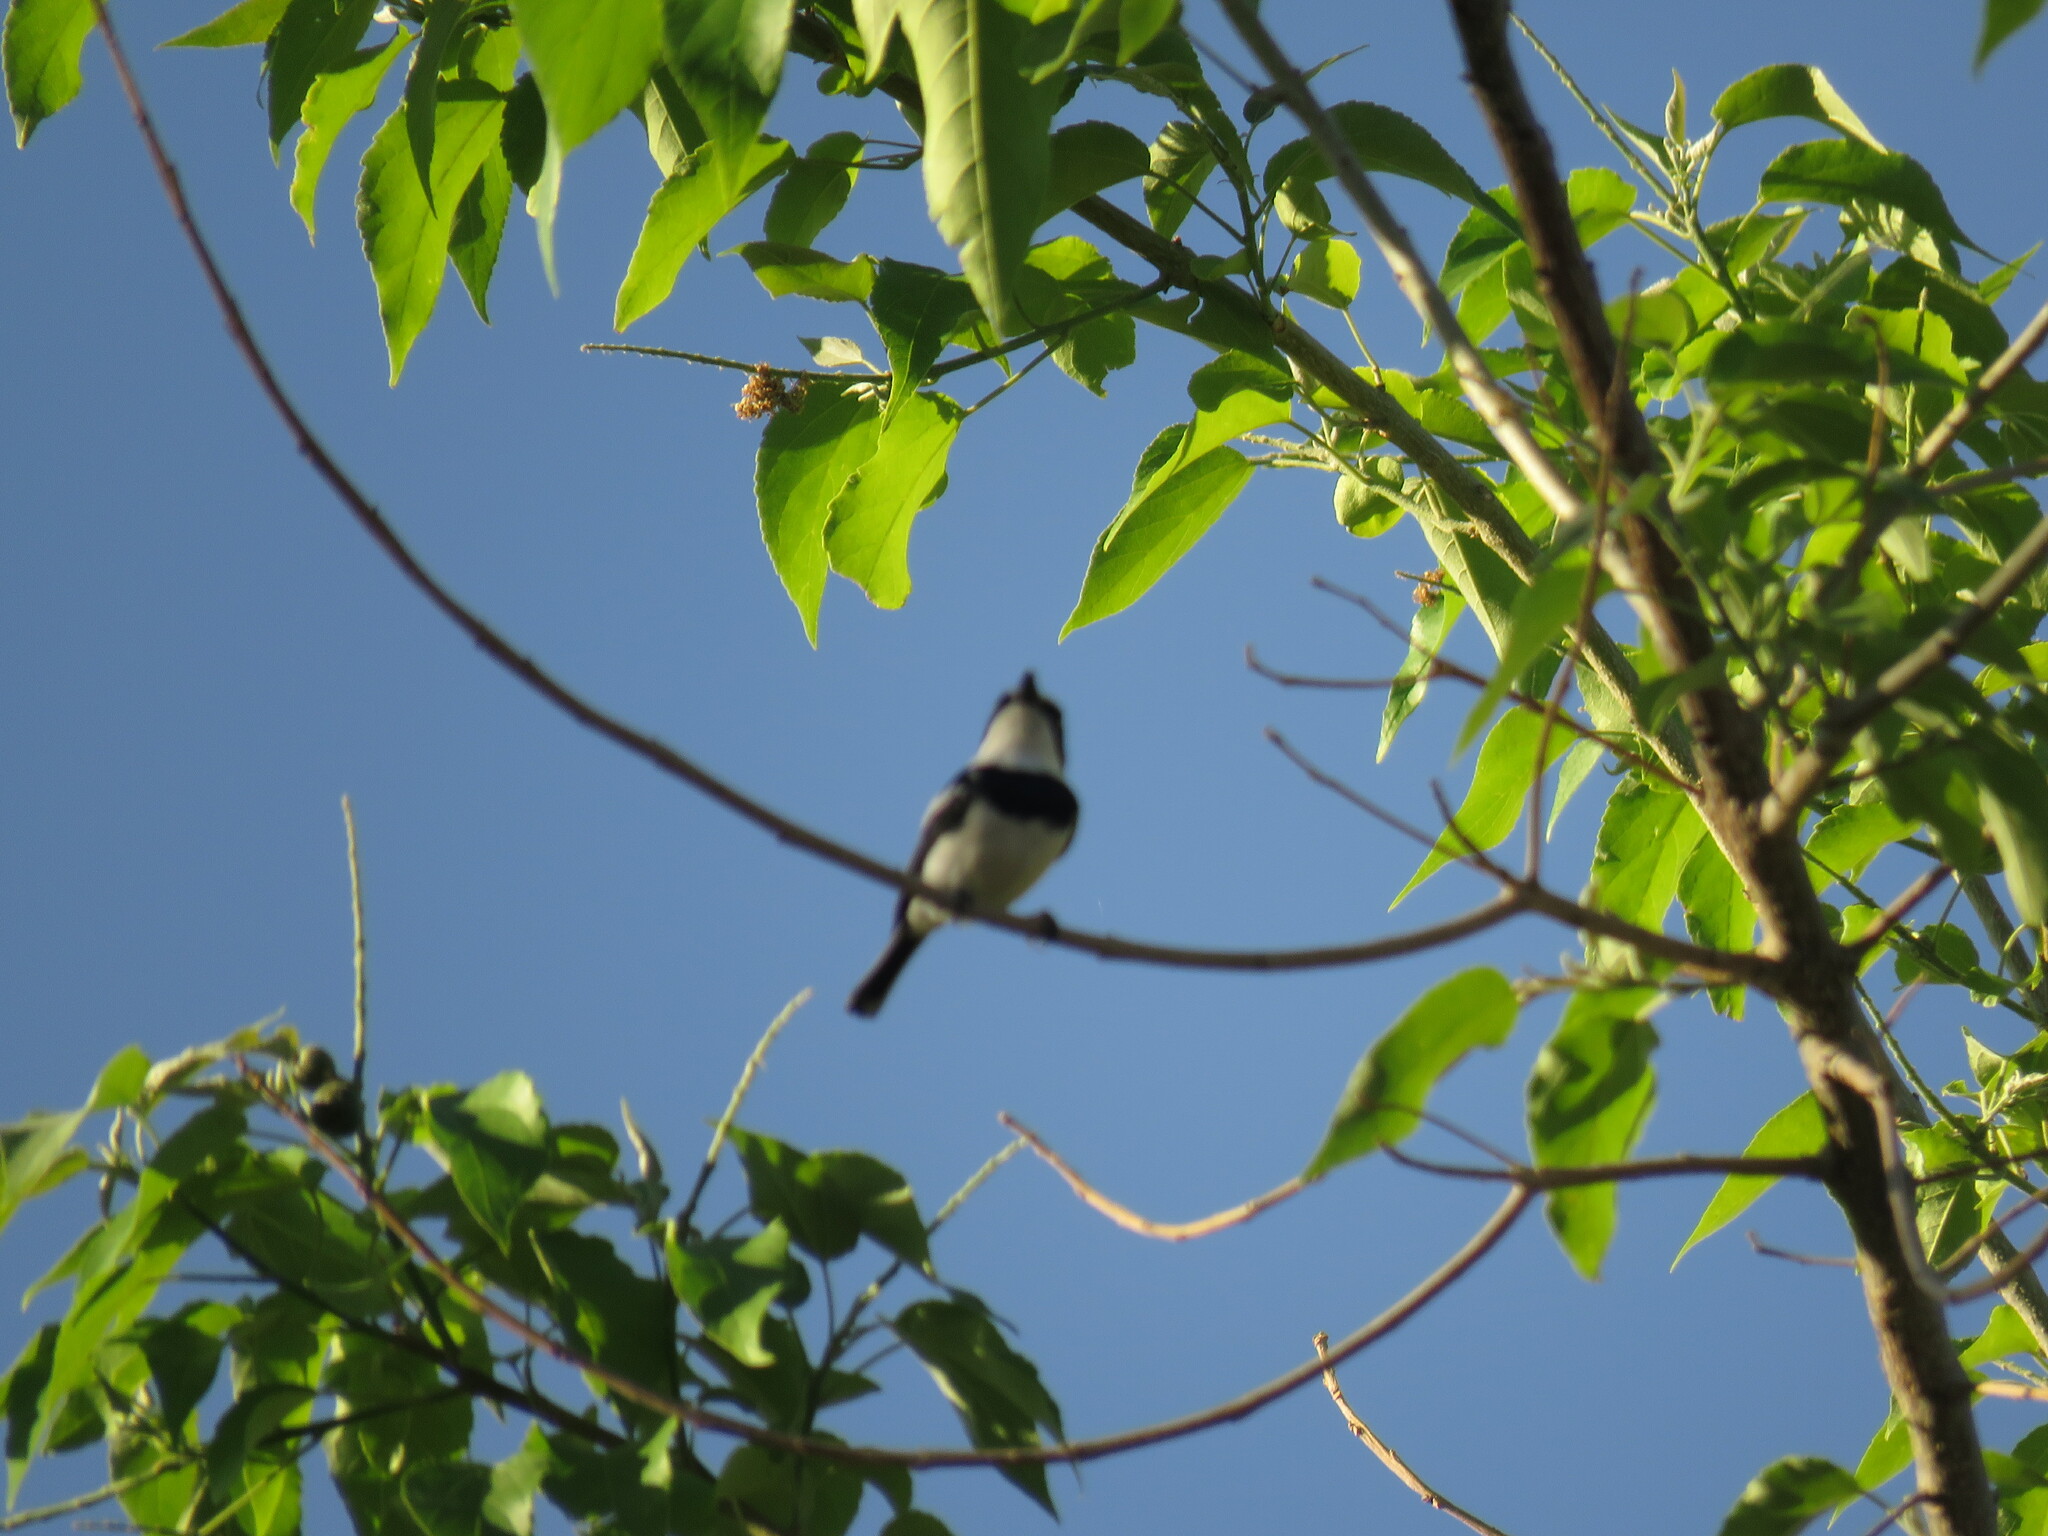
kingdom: Animalia
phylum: Chordata
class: Aves
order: Passeriformes
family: Platysteiridae
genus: Batis
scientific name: Batis molitor
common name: Chinspot batis
